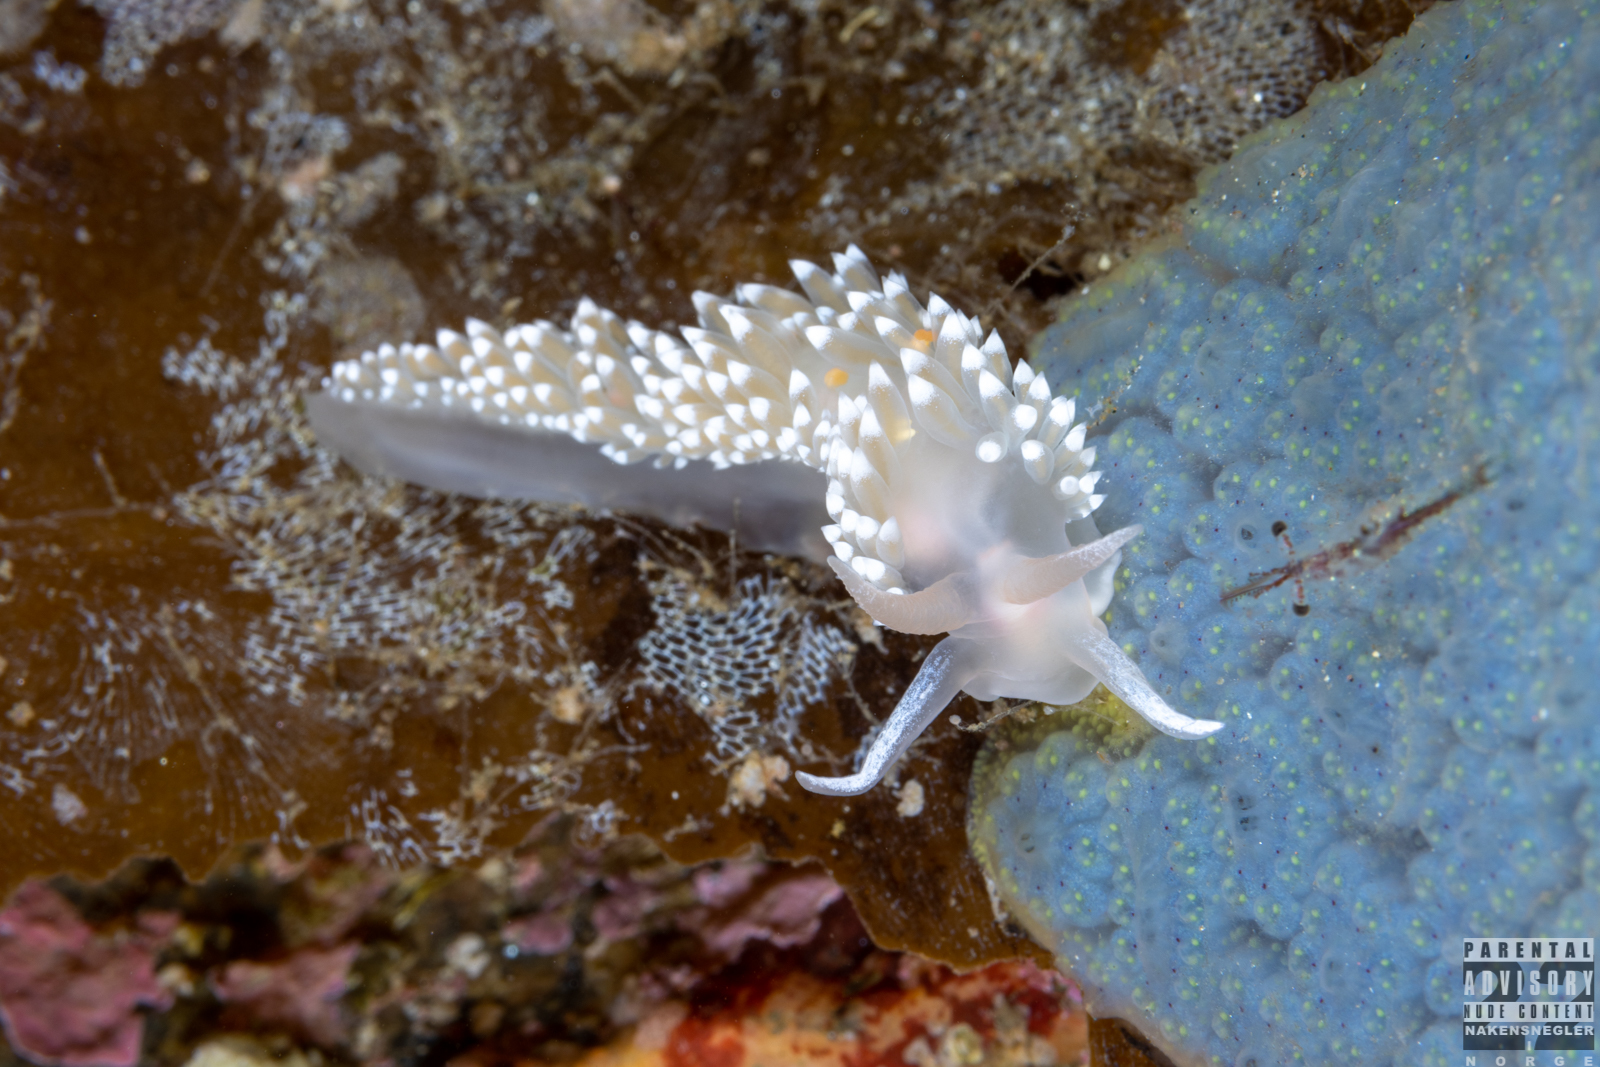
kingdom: Animalia
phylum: Mollusca
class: Gastropoda
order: Nudibranchia
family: Coryphellidae
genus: Coryphella
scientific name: Coryphella verrucosa
